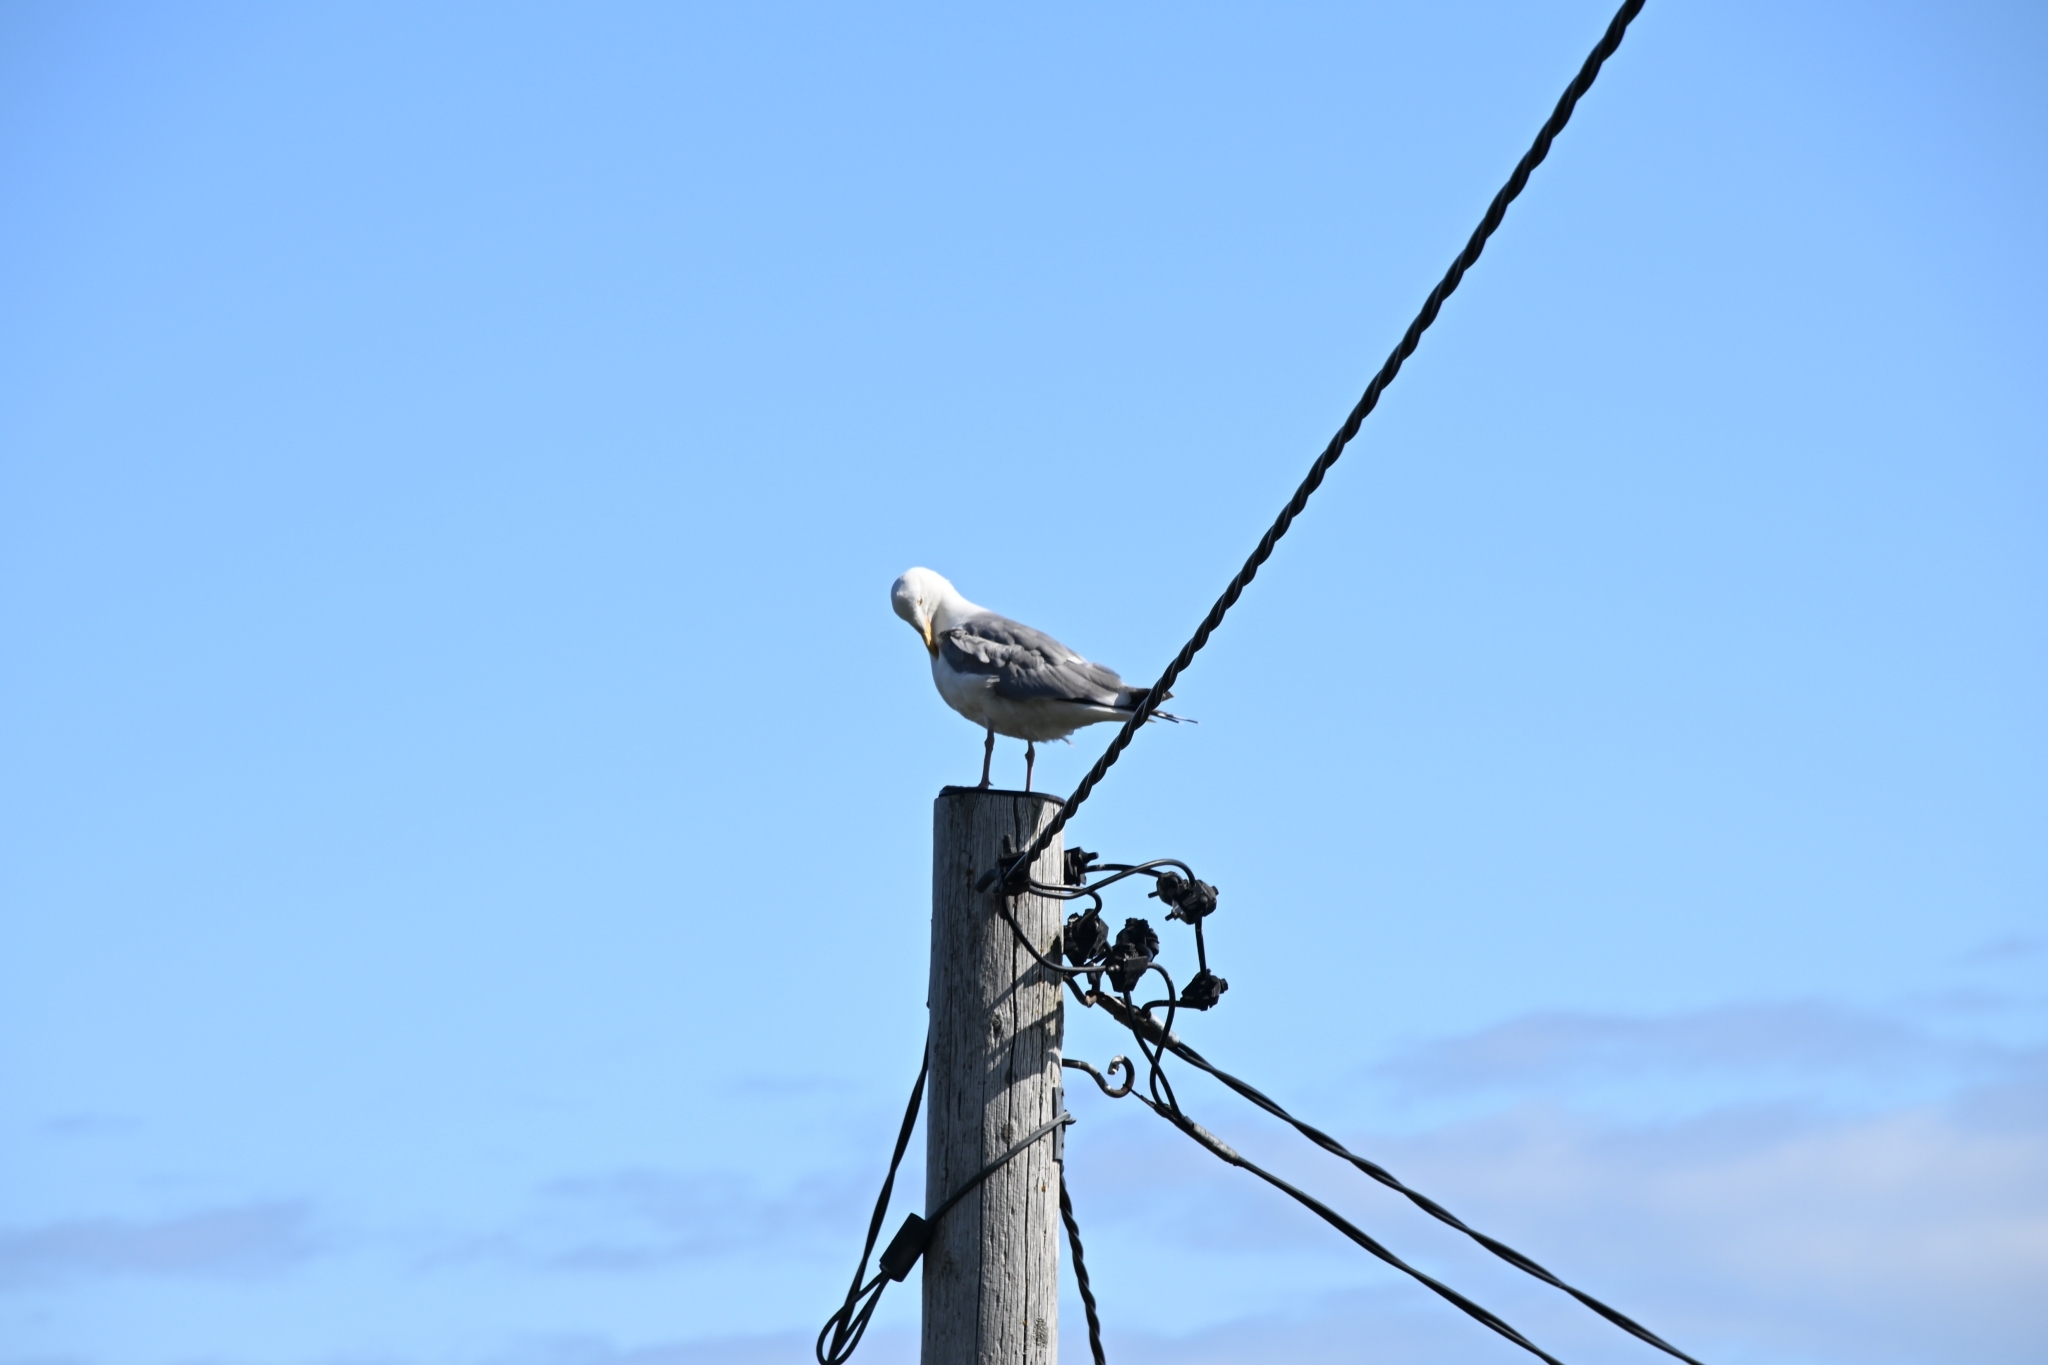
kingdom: Animalia
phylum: Chordata
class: Aves
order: Charadriiformes
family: Laridae
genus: Larus
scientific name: Larus argentatus
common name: Herring gull
